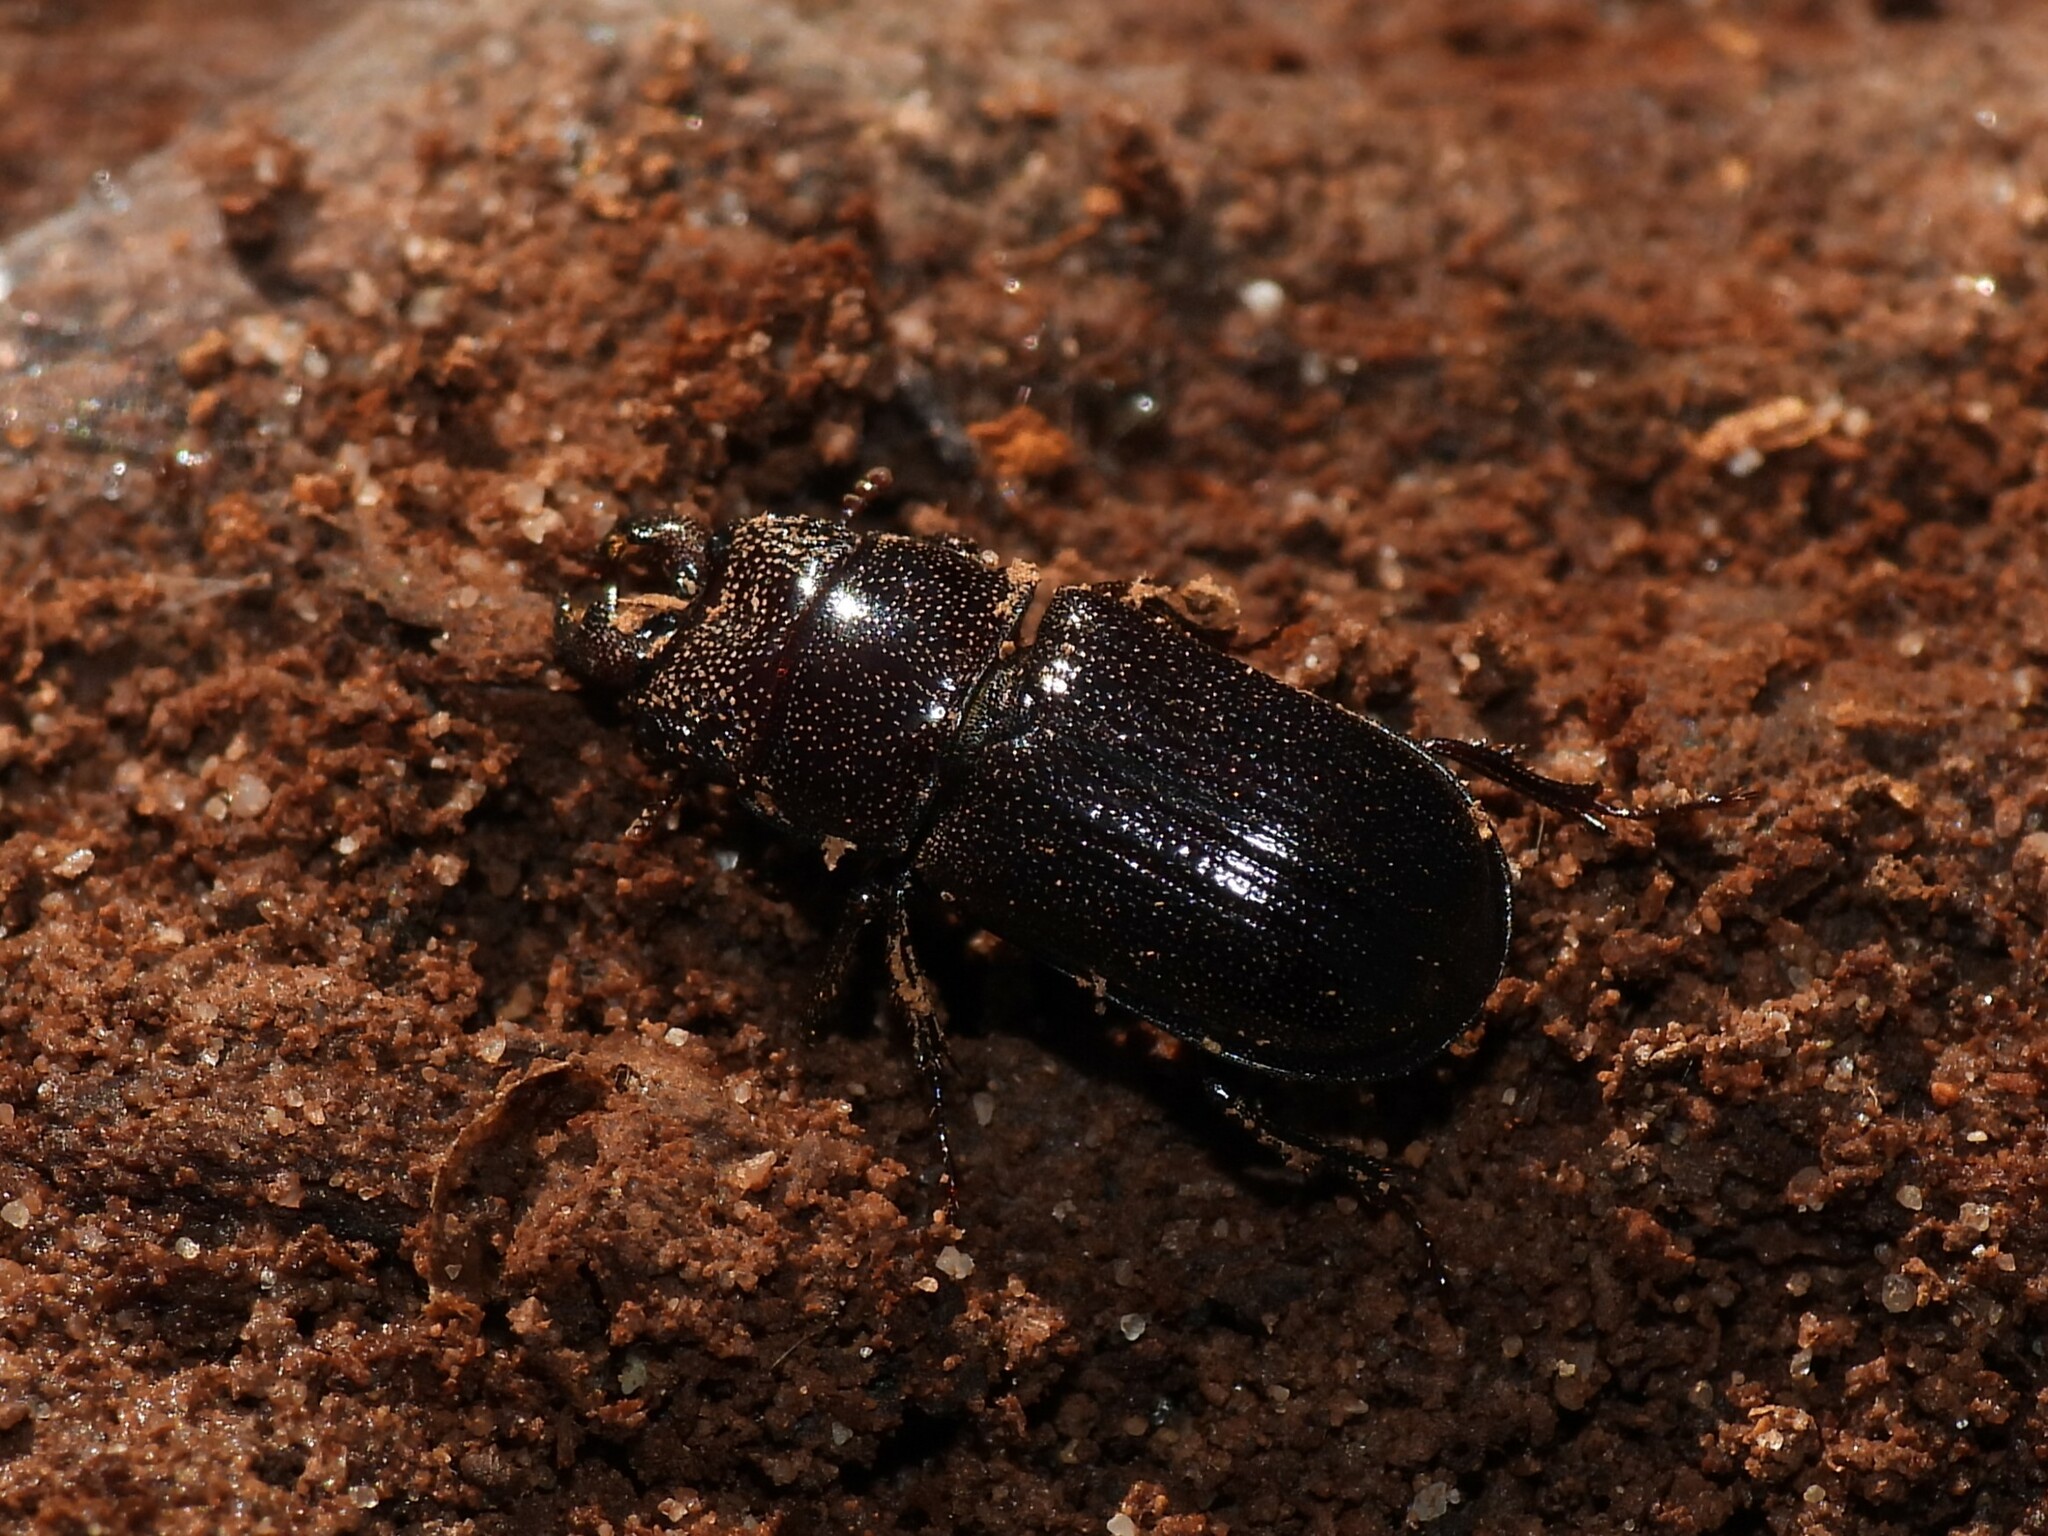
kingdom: Animalia
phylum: Arthropoda
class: Insecta
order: Coleoptera
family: Lucanidae
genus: Ceruchus
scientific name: Ceruchus piceus
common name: Red-rot decay stag beetle
